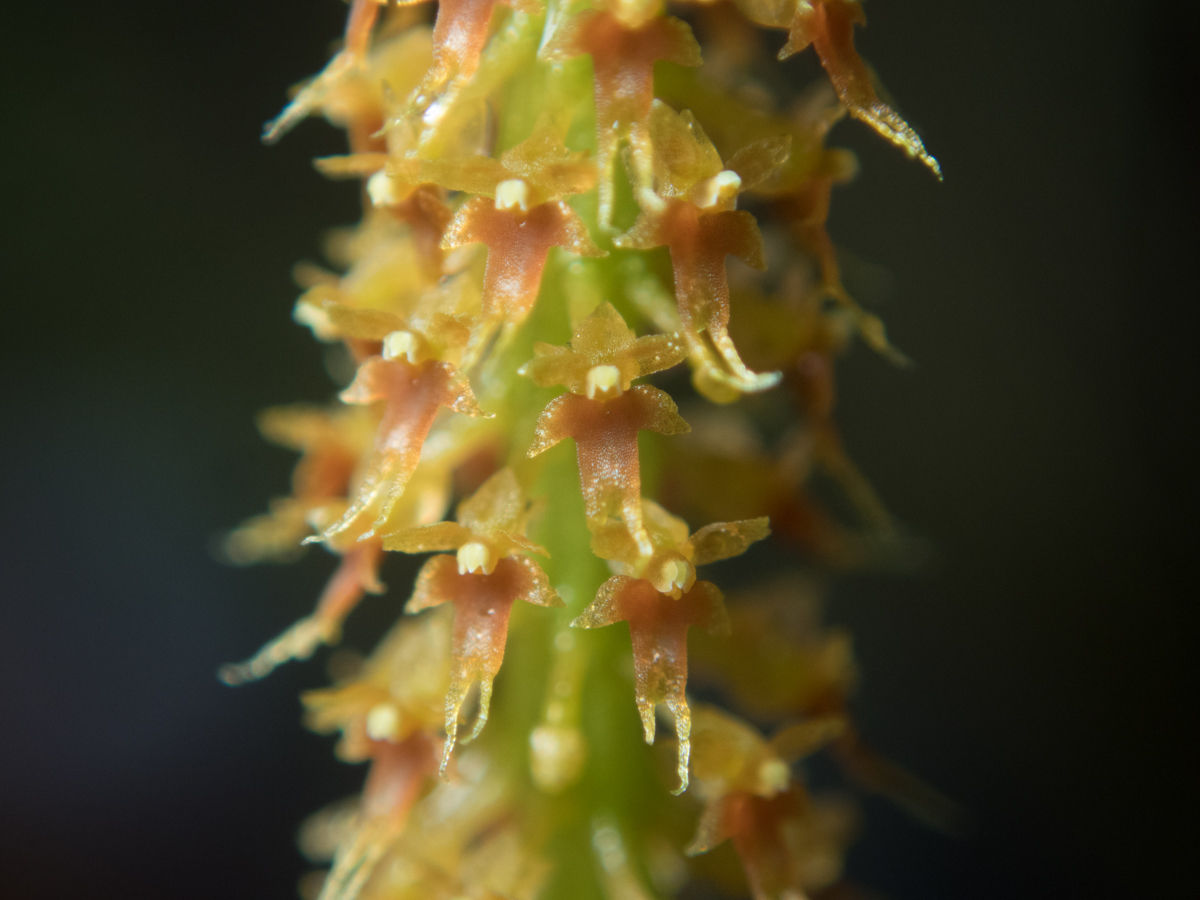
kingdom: Plantae
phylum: Tracheophyta
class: Liliopsida
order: Asparagales
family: Orchidaceae
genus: Oberonia
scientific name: Oberonia falcata
